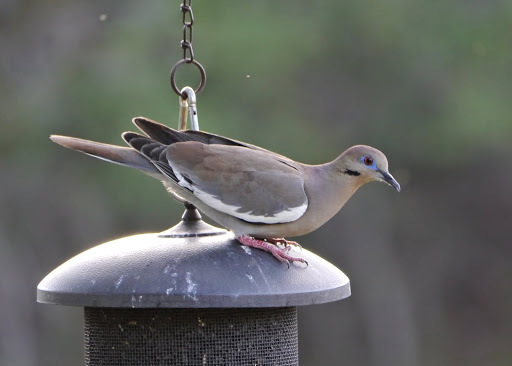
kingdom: Animalia
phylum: Chordata
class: Aves
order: Columbiformes
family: Columbidae
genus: Zenaida
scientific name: Zenaida asiatica
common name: White-winged dove
